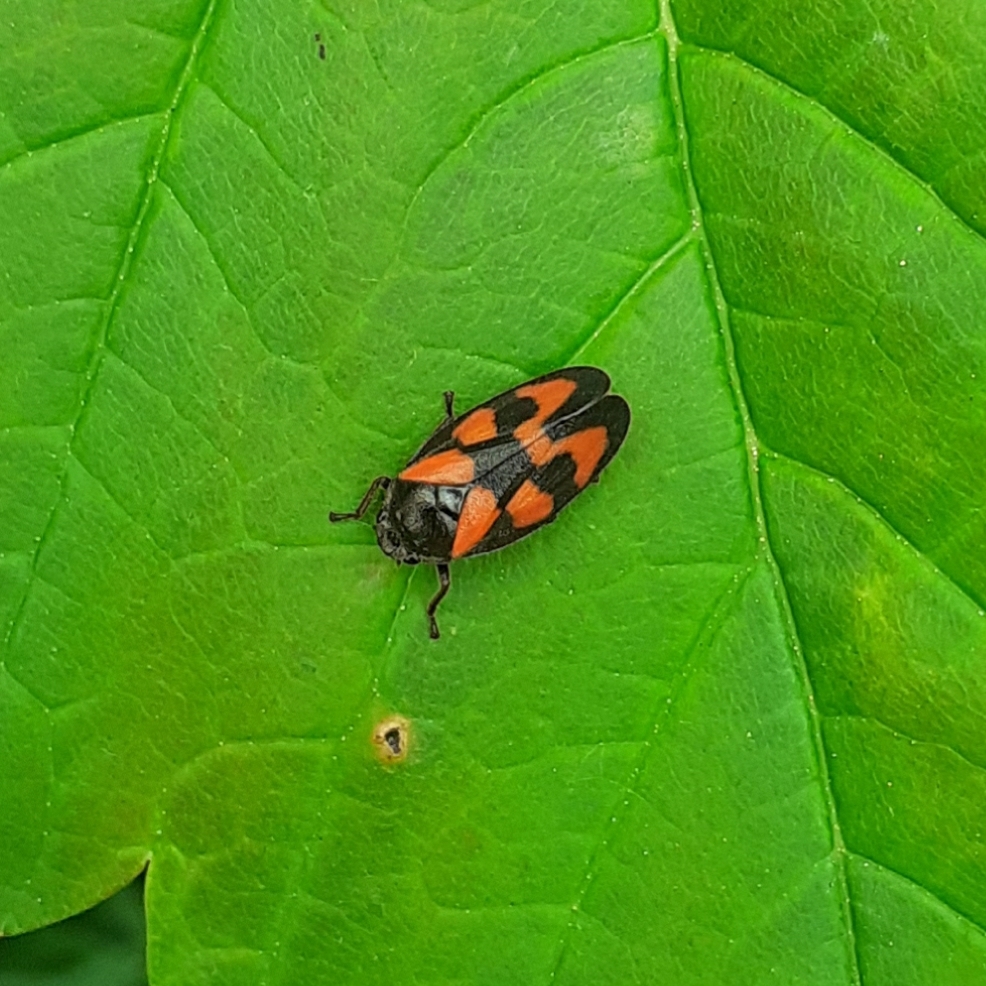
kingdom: Animalia
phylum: Arthropoda
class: Insecta
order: Hemiptera
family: Cercopidae
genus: Cercopis
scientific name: Cercopis vulnerata
